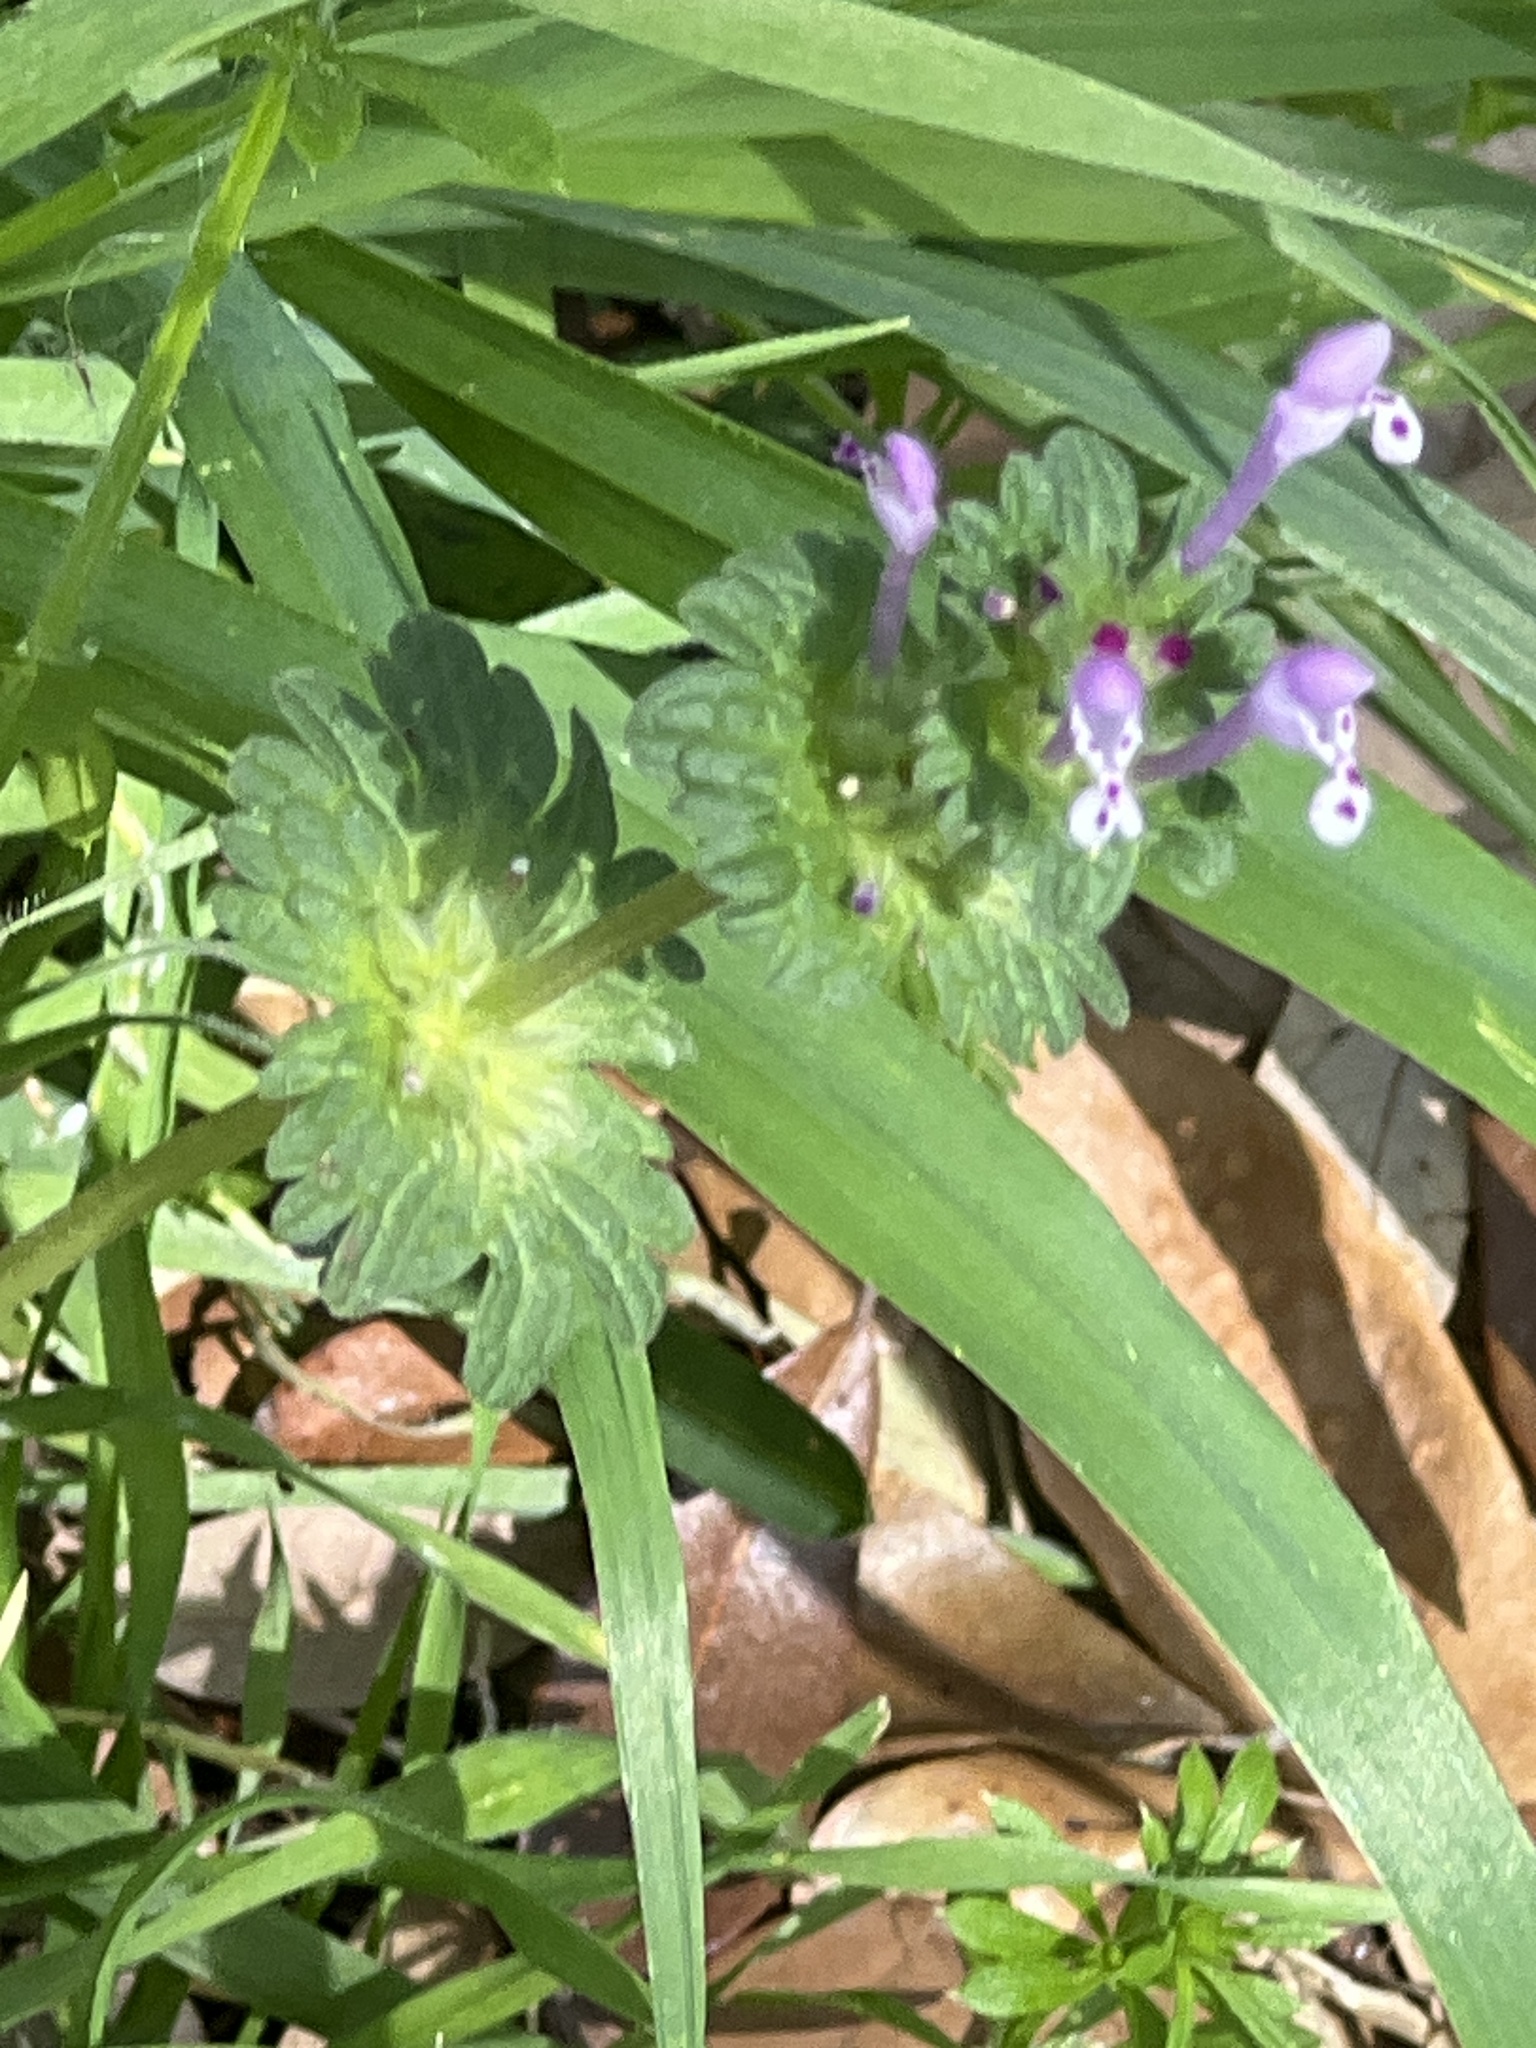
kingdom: Plantae
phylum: Tracheophyta
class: Magnoliopsida
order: Lamiales
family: Lamiaceae
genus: Lamium
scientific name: Lamium amplexicaule
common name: Henbit dead-nettle
